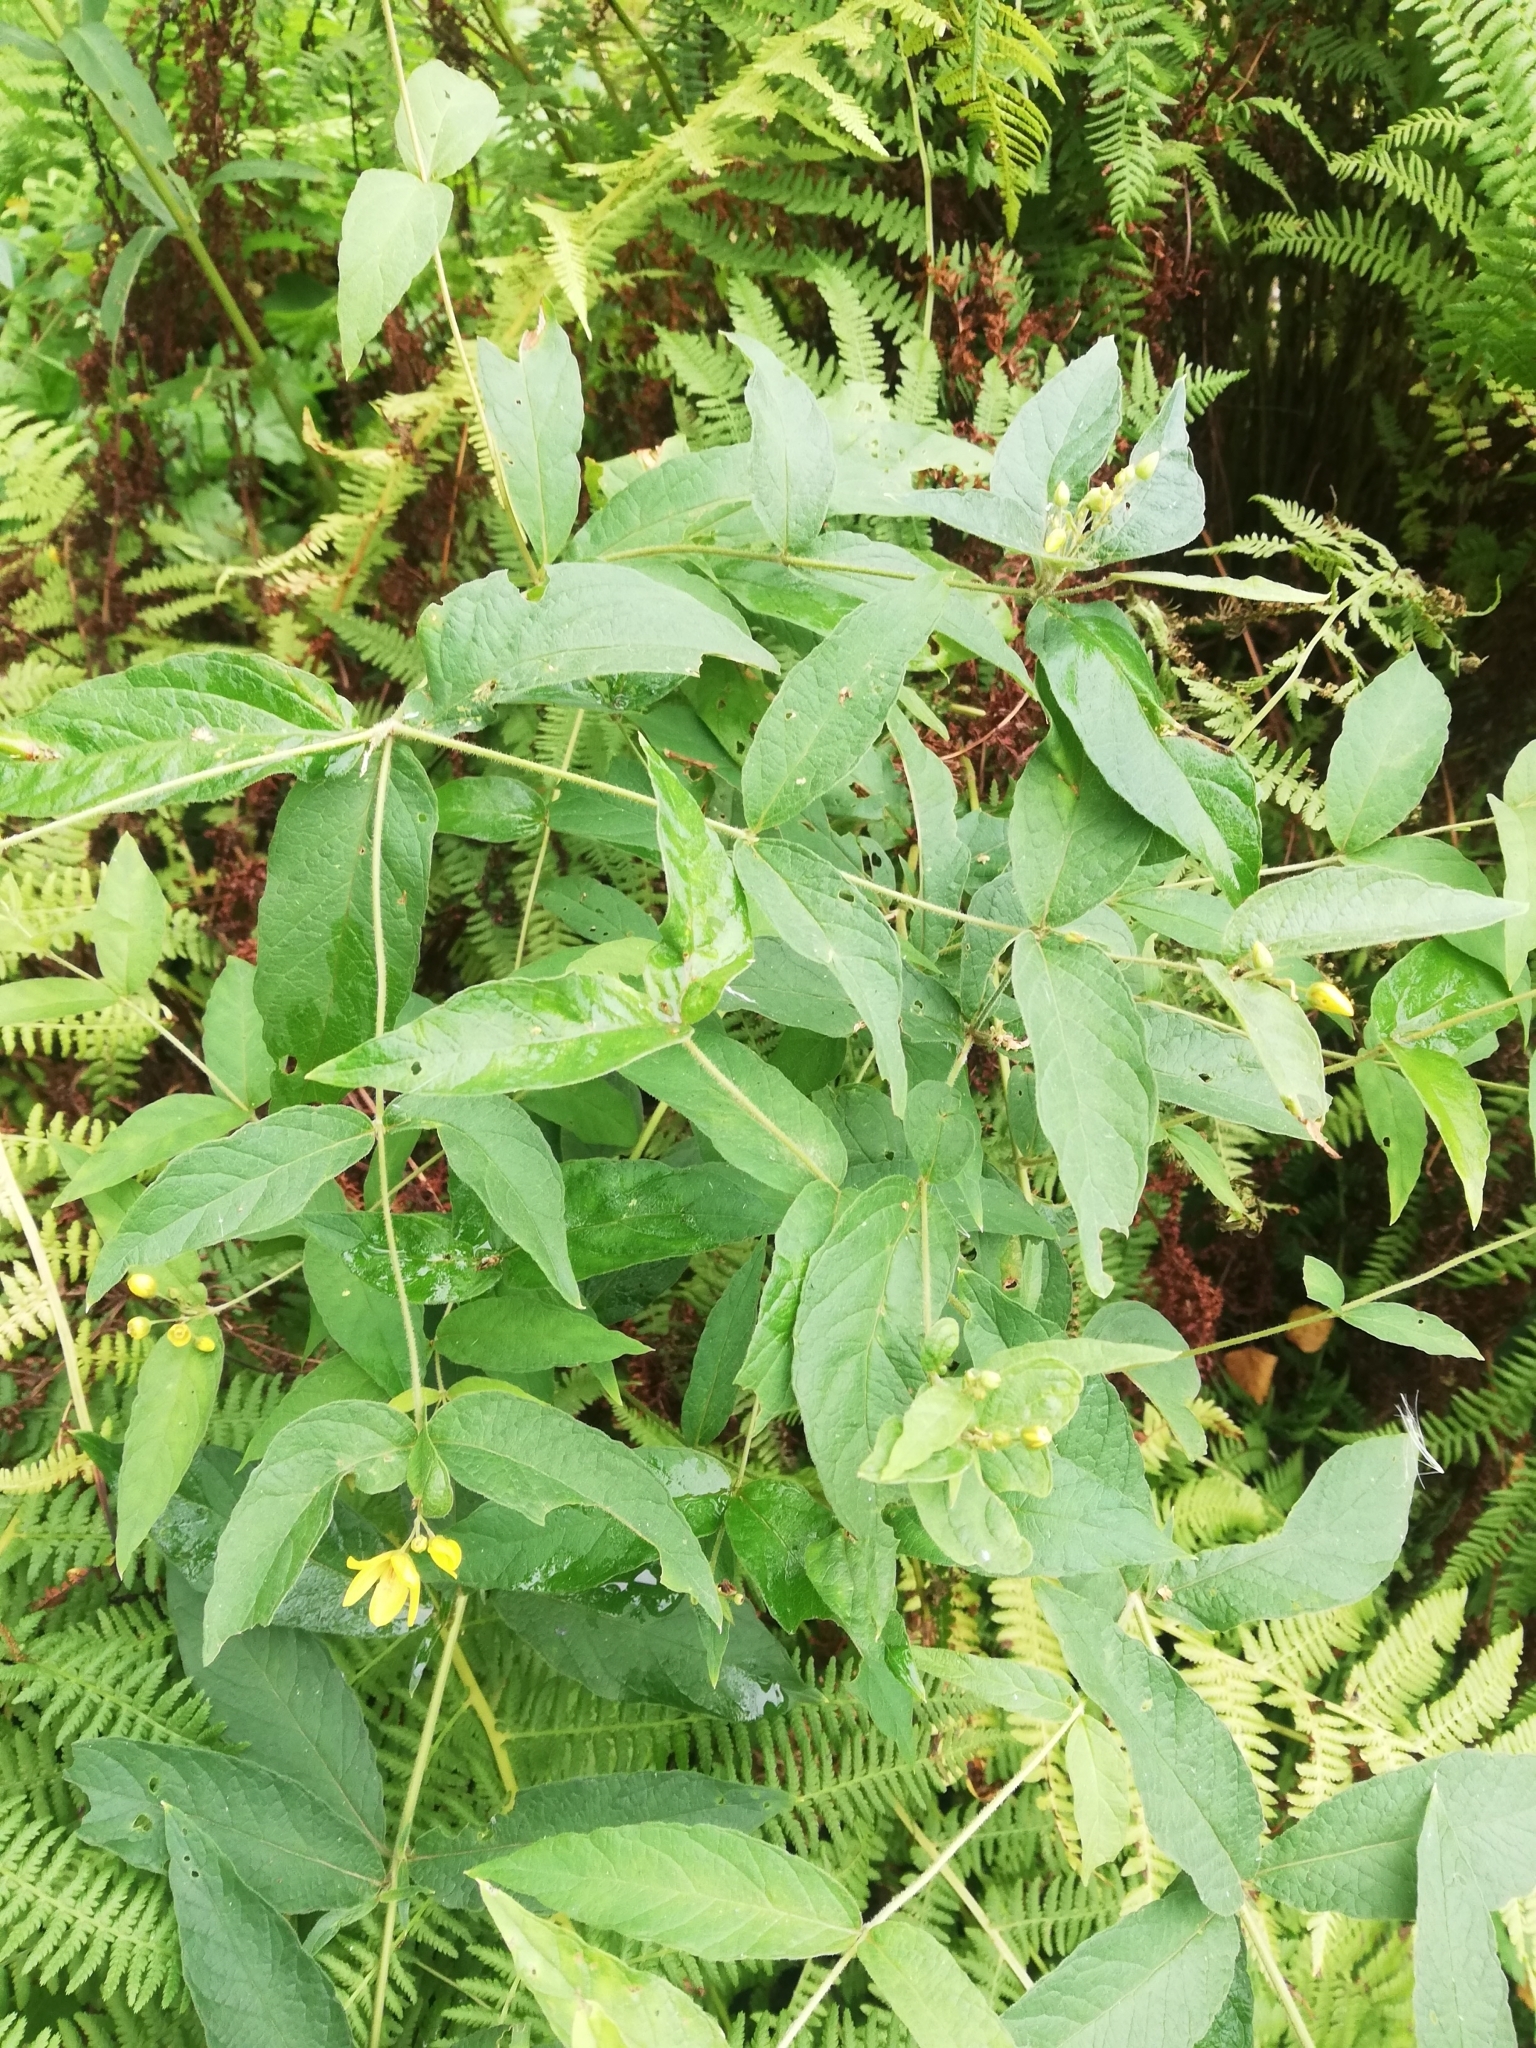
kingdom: Plantae
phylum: Tracheophyta
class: Magnoliopsida
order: Ericales
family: Primulaceae
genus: Lysimachia
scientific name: Lysimachia vulgaris
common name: Yellow loosestrife
